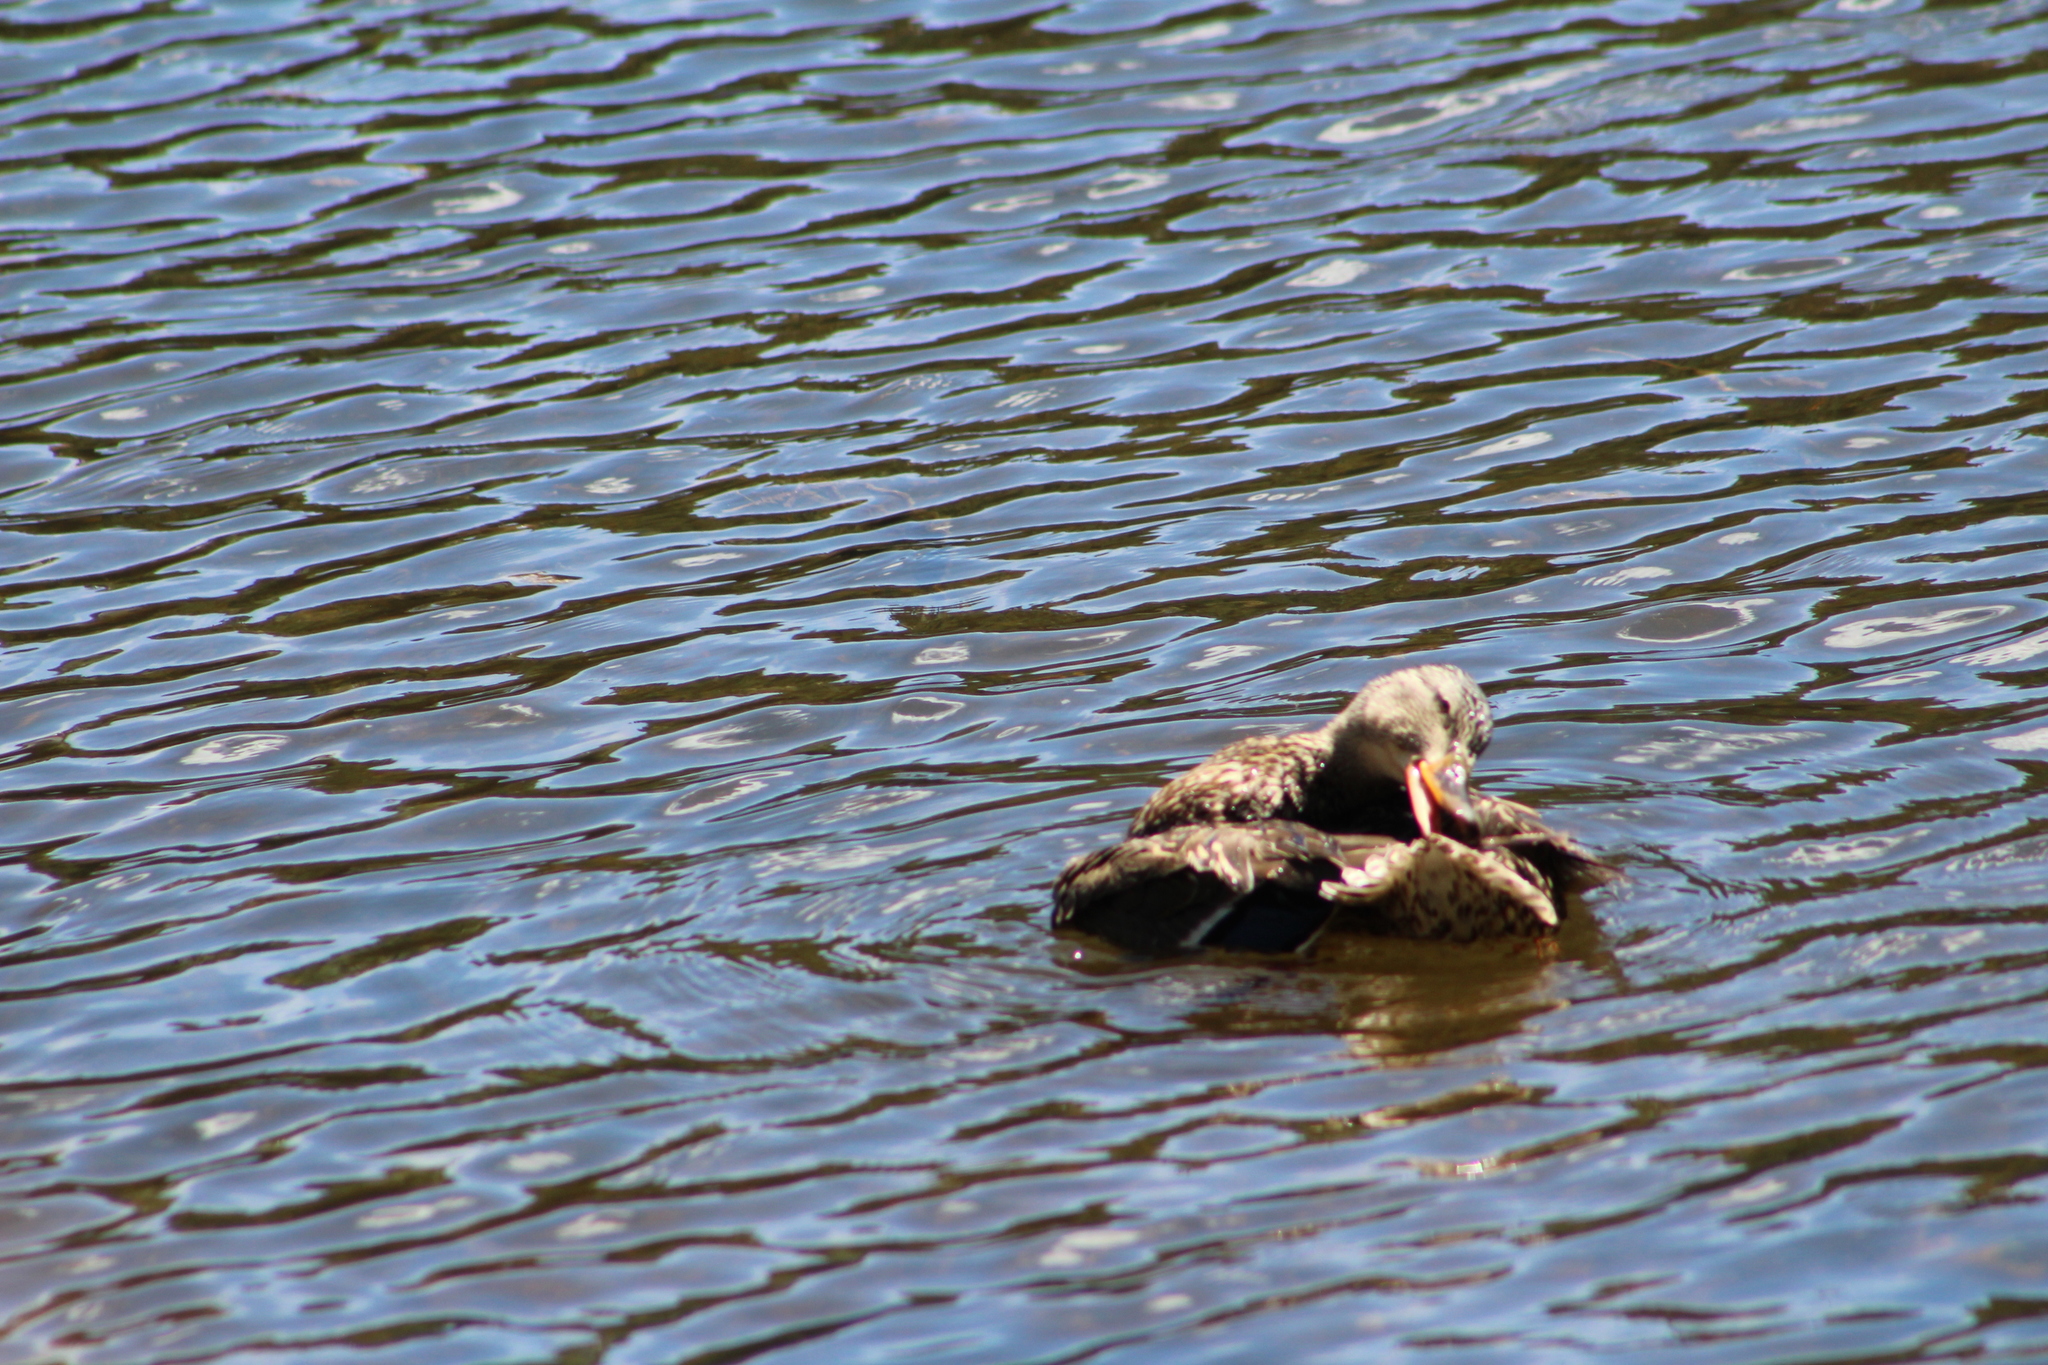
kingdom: Animalia
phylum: Chordata
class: Aves
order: Anseriformes
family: Anatidae
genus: Anas
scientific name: Anas platyrhynchos
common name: Mallard
